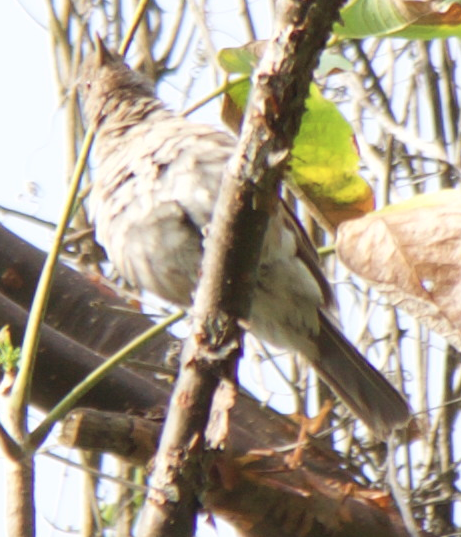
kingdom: Animalia
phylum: Chordata
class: Aves
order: Passeriformes
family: Turdidae
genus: Turdus
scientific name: Turdus leucomelas
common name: Pale-breasted thrush
